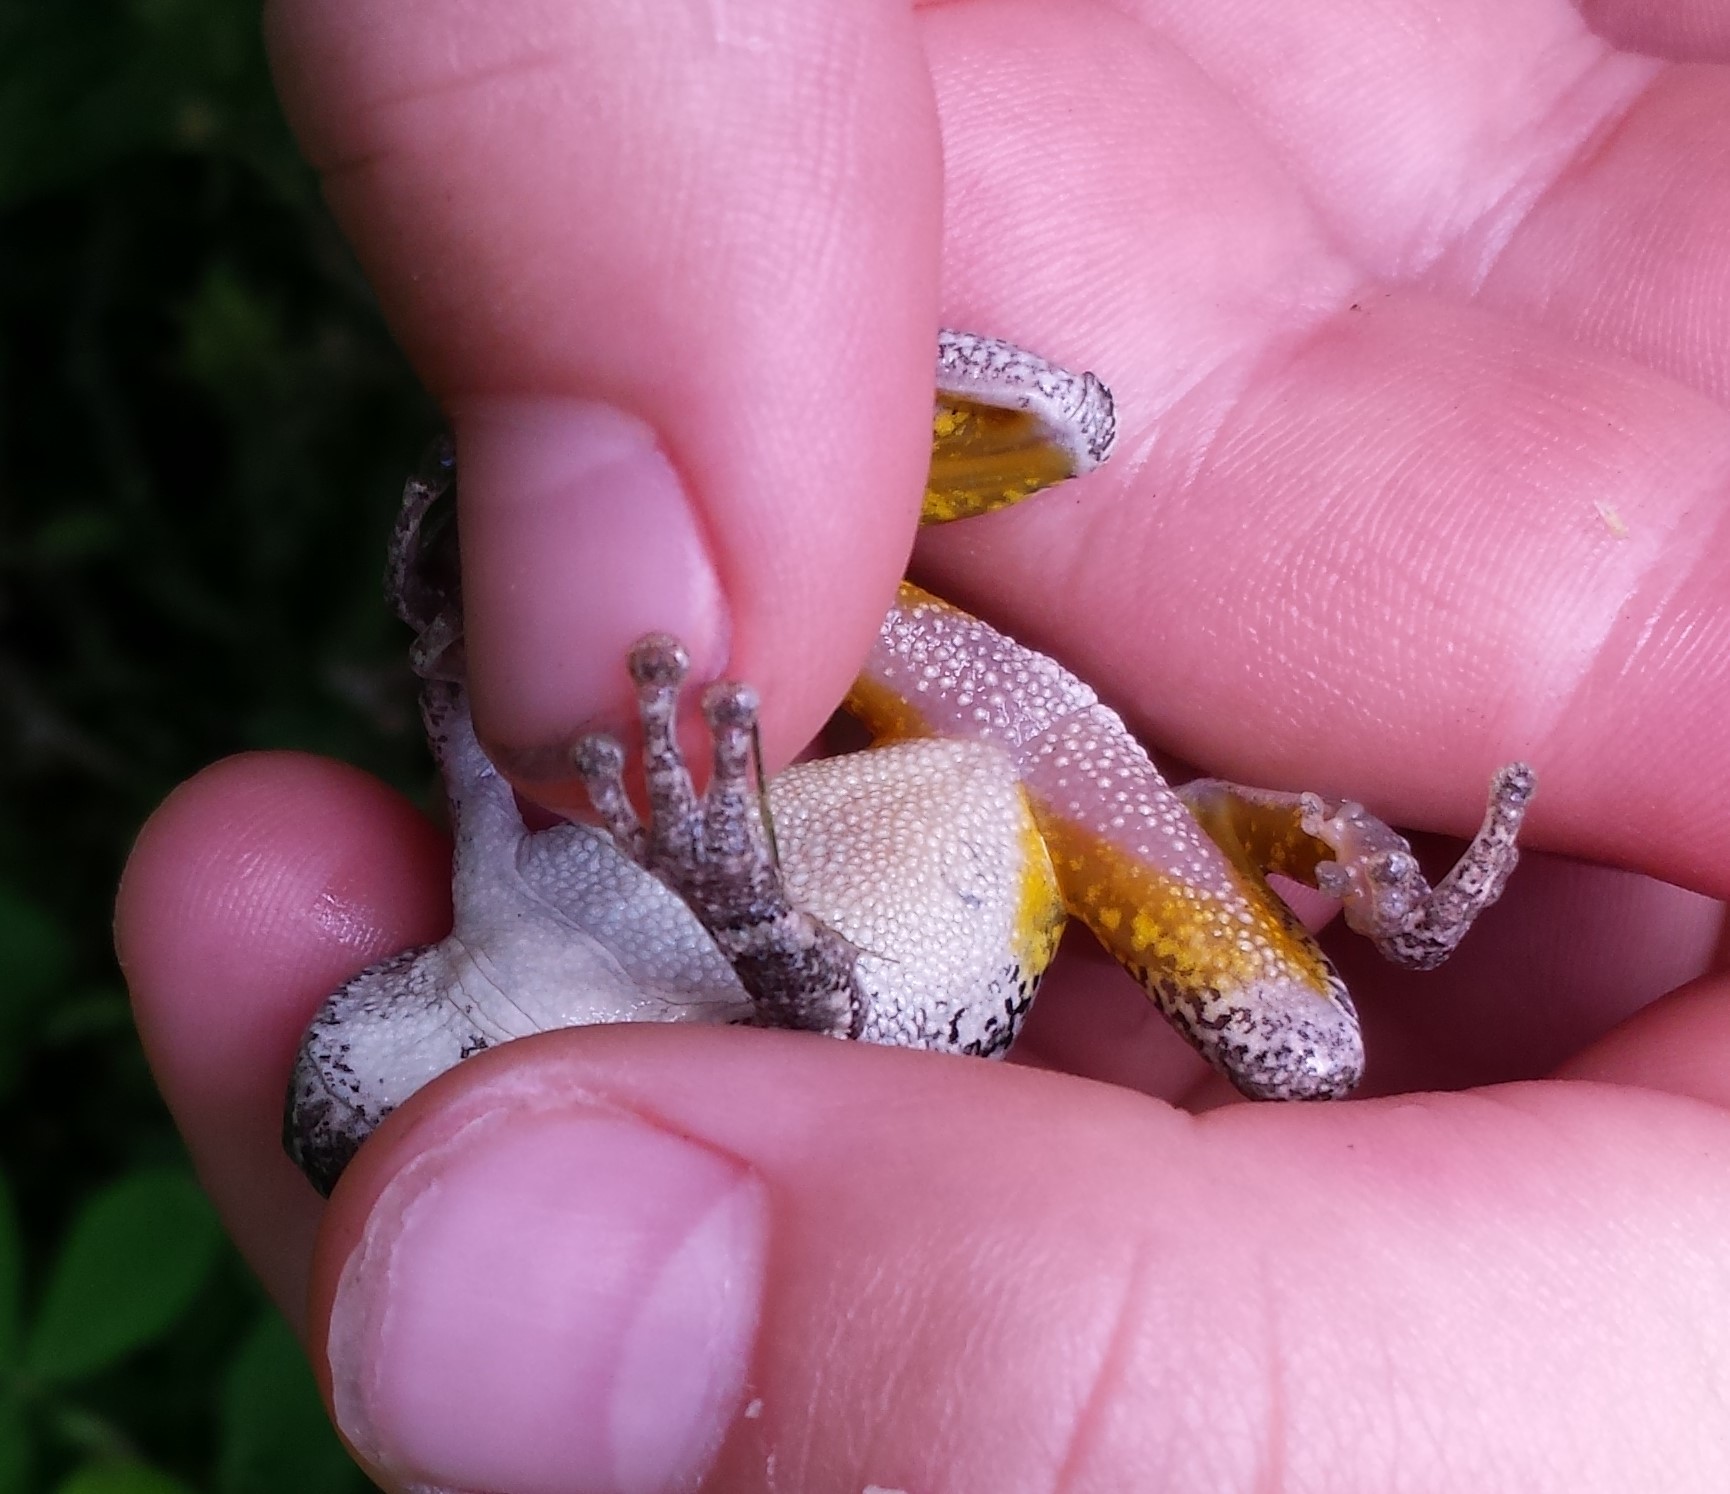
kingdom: Animalia
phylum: Chordata
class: Amphibia
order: Anura
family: Hylidae
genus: Hyla
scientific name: Hyla
